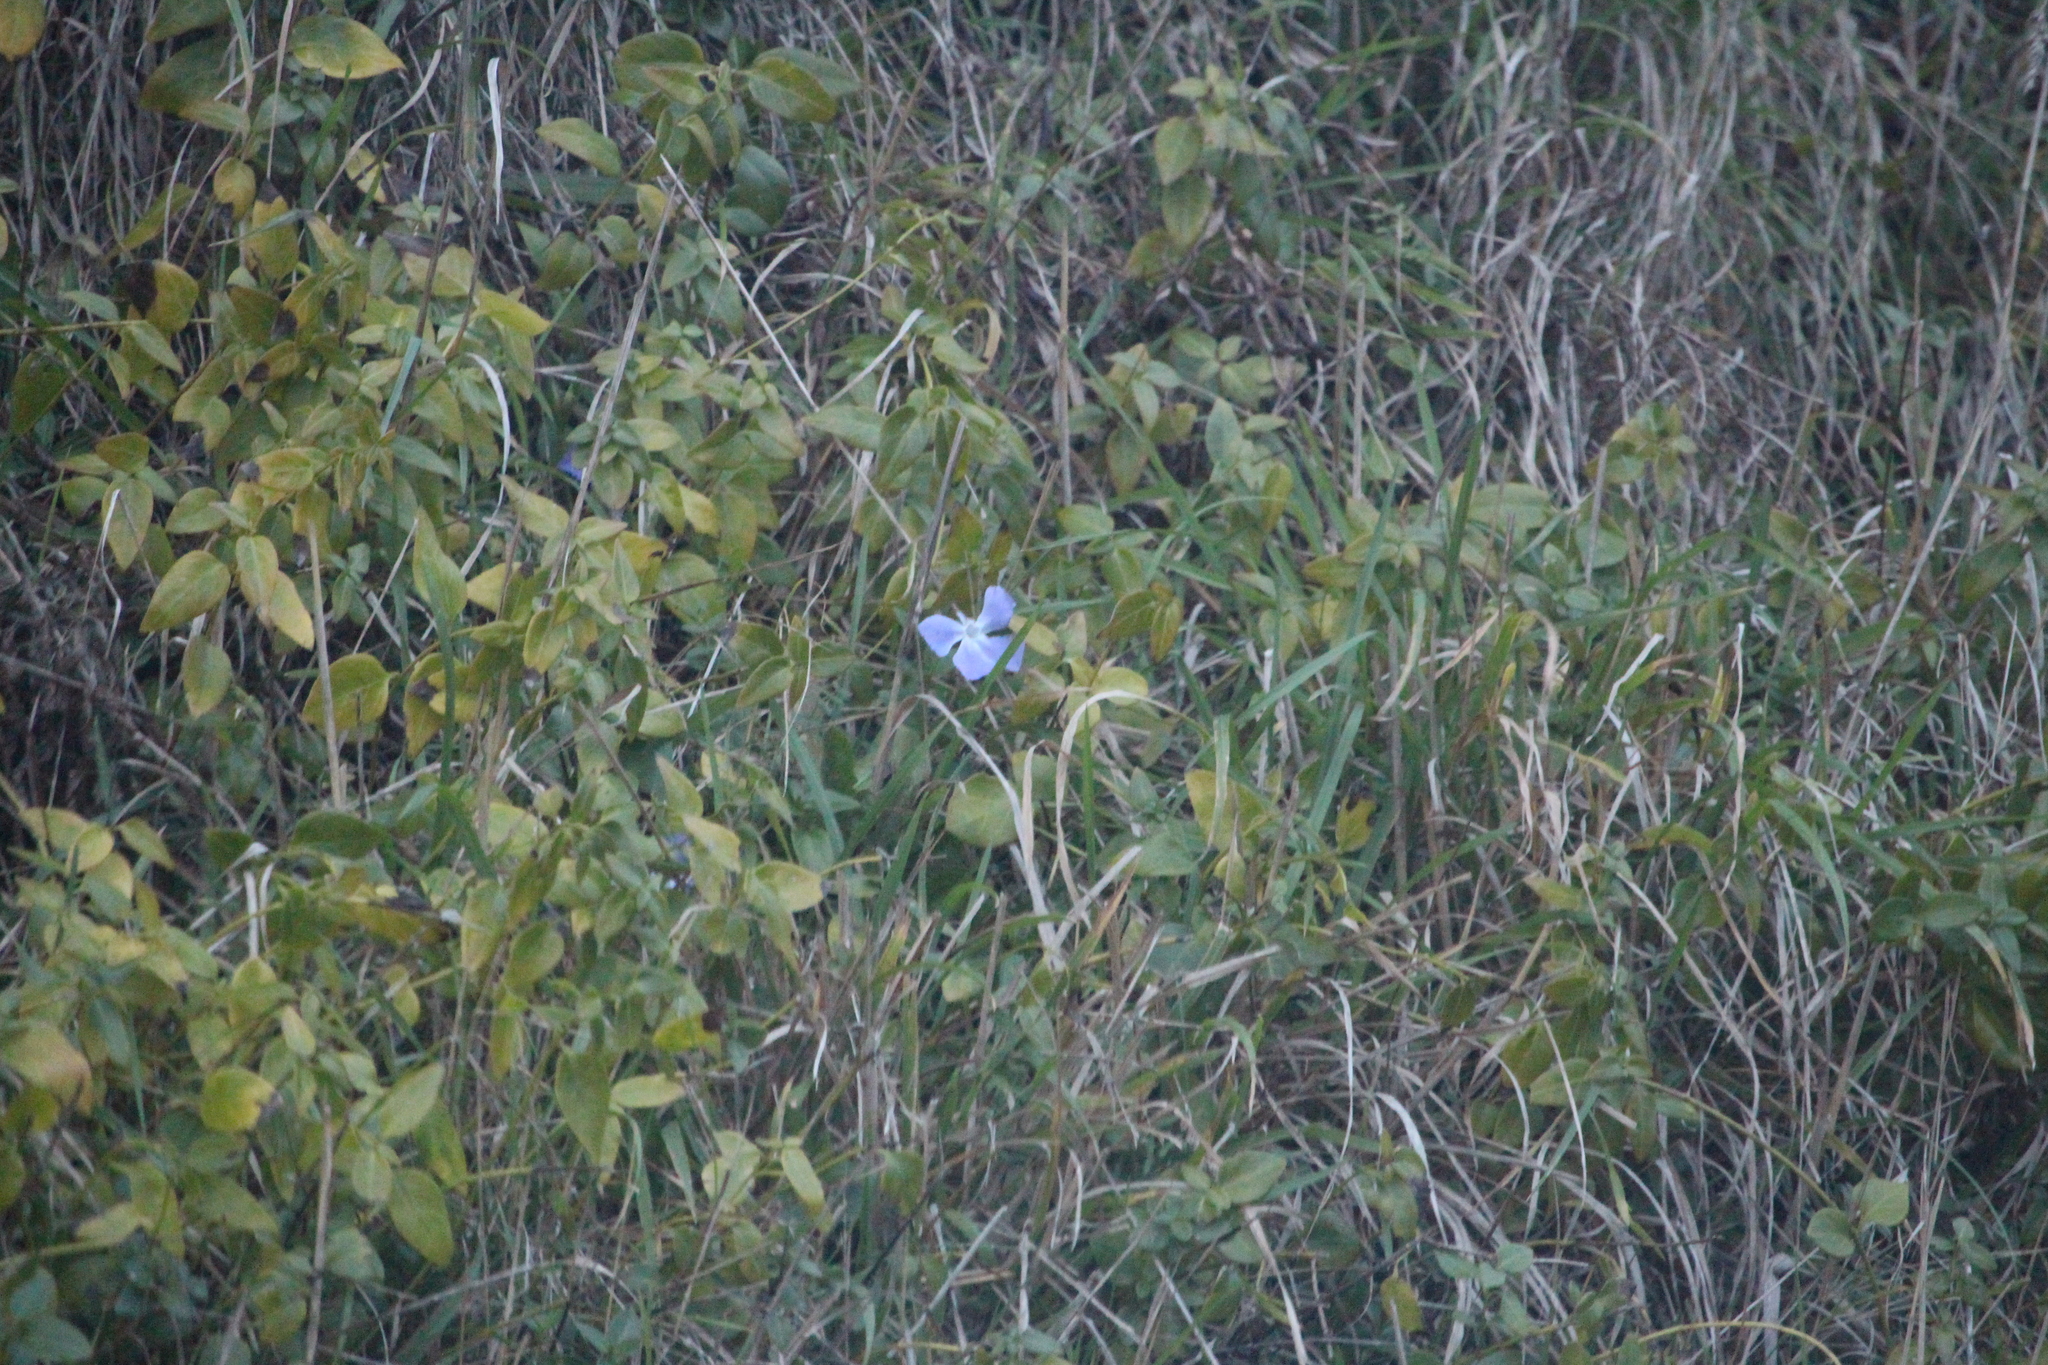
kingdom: Plantae
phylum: Tracheophyta
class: Magnoliopsida
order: Gentianales
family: Apocynaceae
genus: Vinca
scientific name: Vinca major
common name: Greater periwinkle
